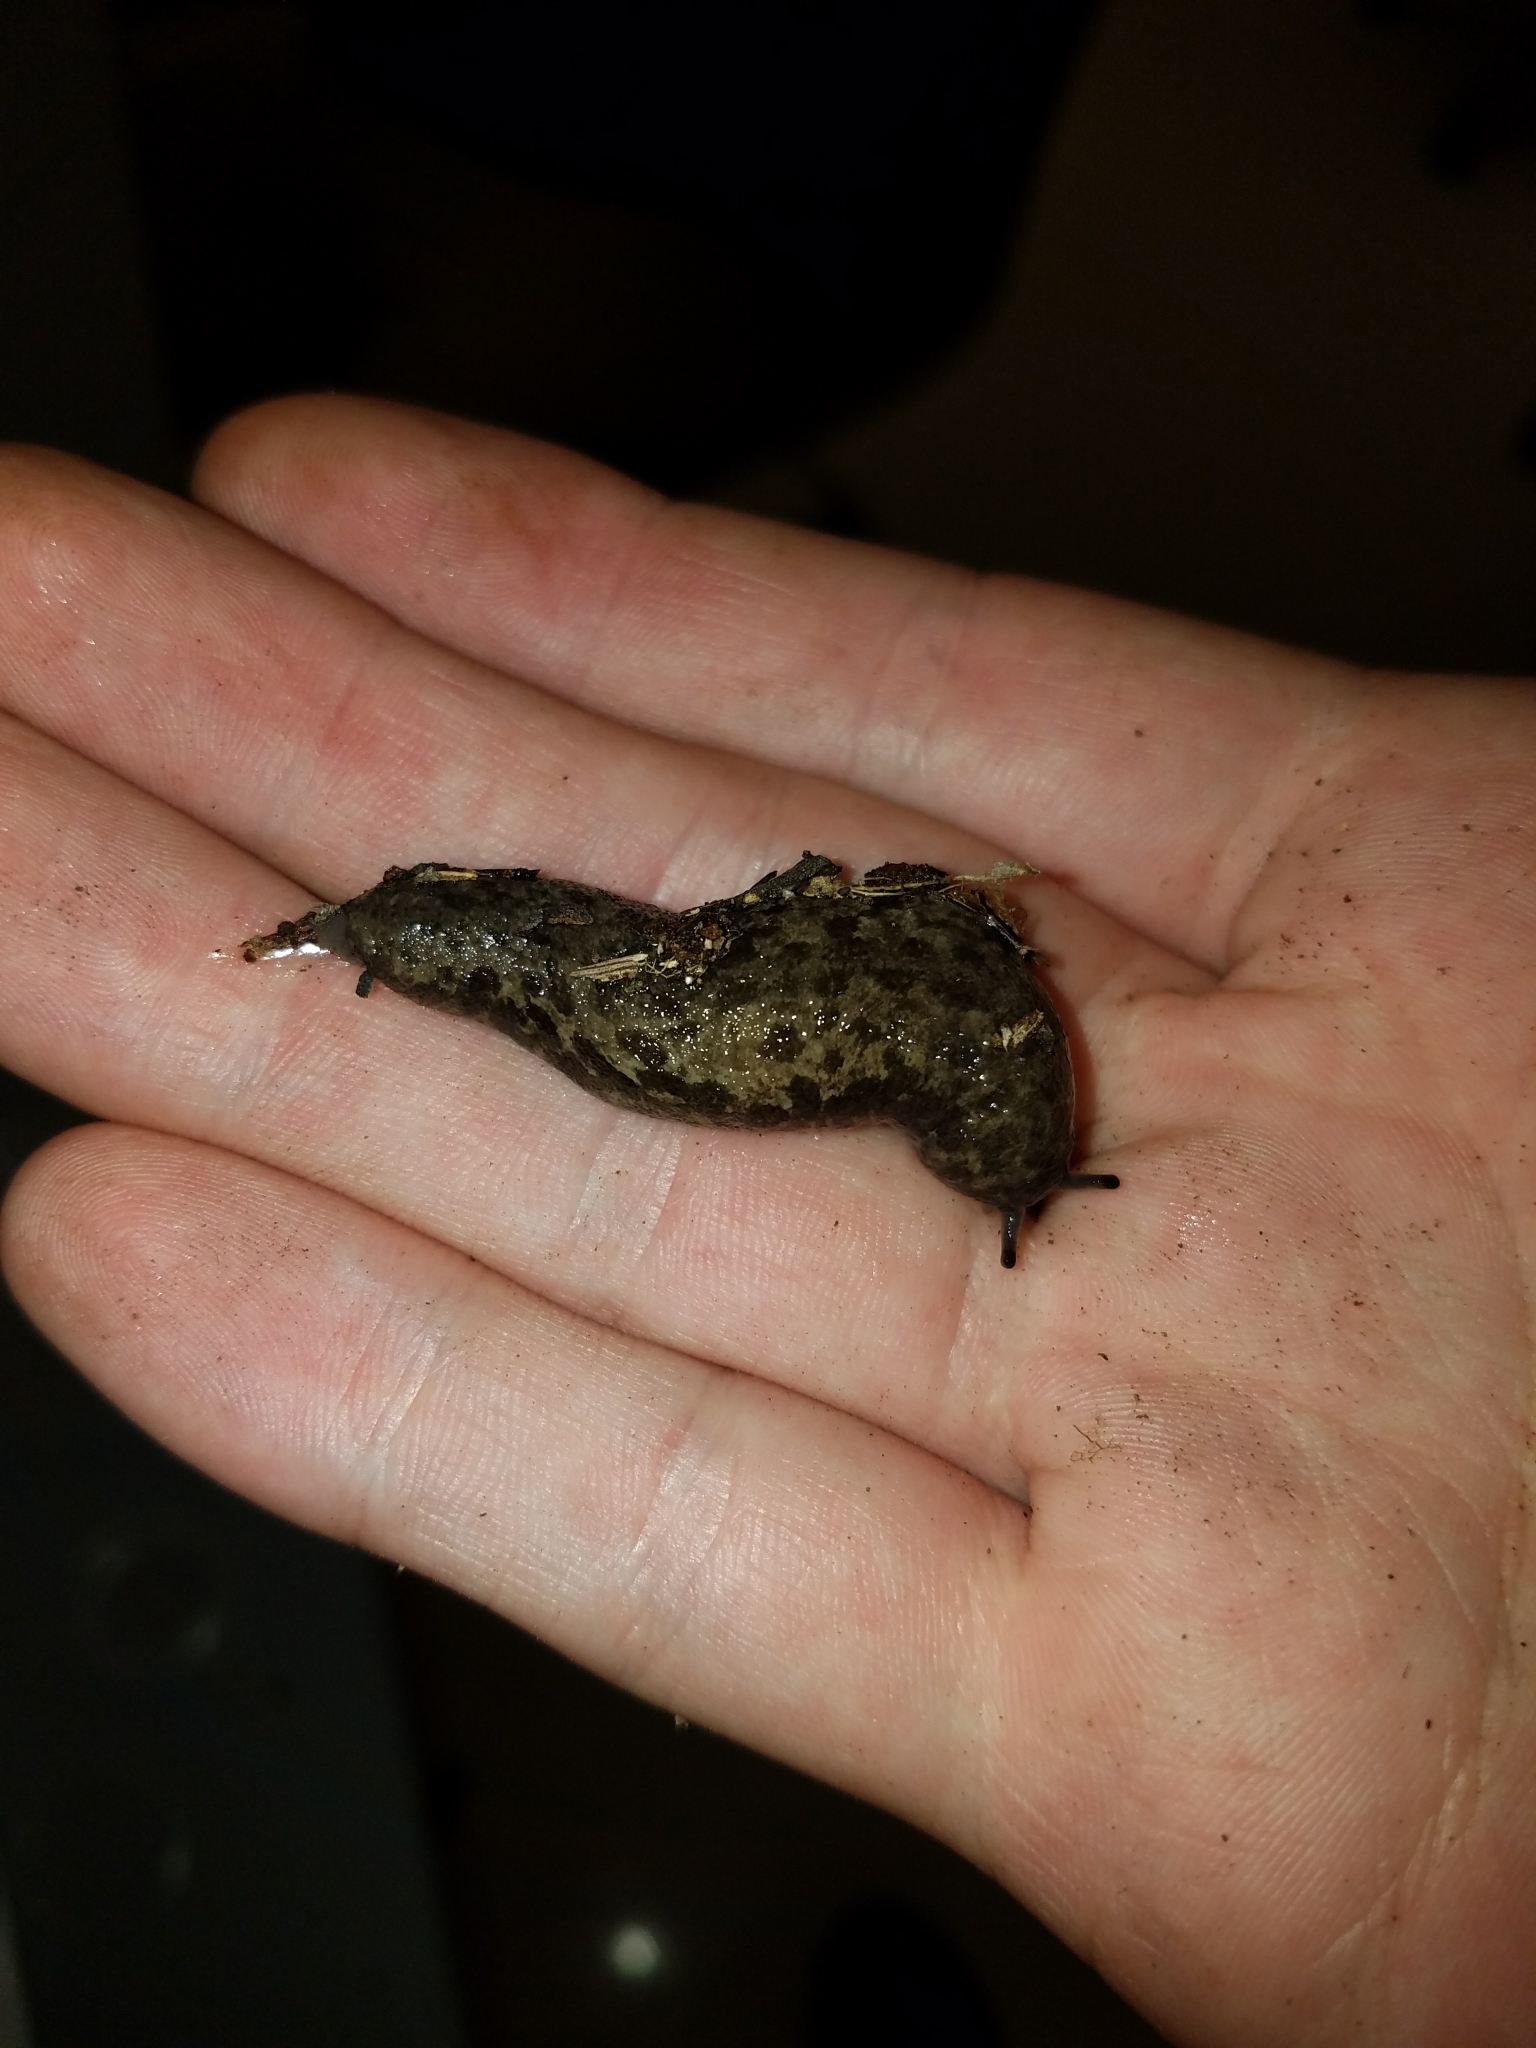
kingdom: Animalia
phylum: Mollusca
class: Gastropoda
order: Stylommatophora
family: Philomycidae
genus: Megapallifera
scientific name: Megapallifera mutabilis
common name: Changeable mantleslug
